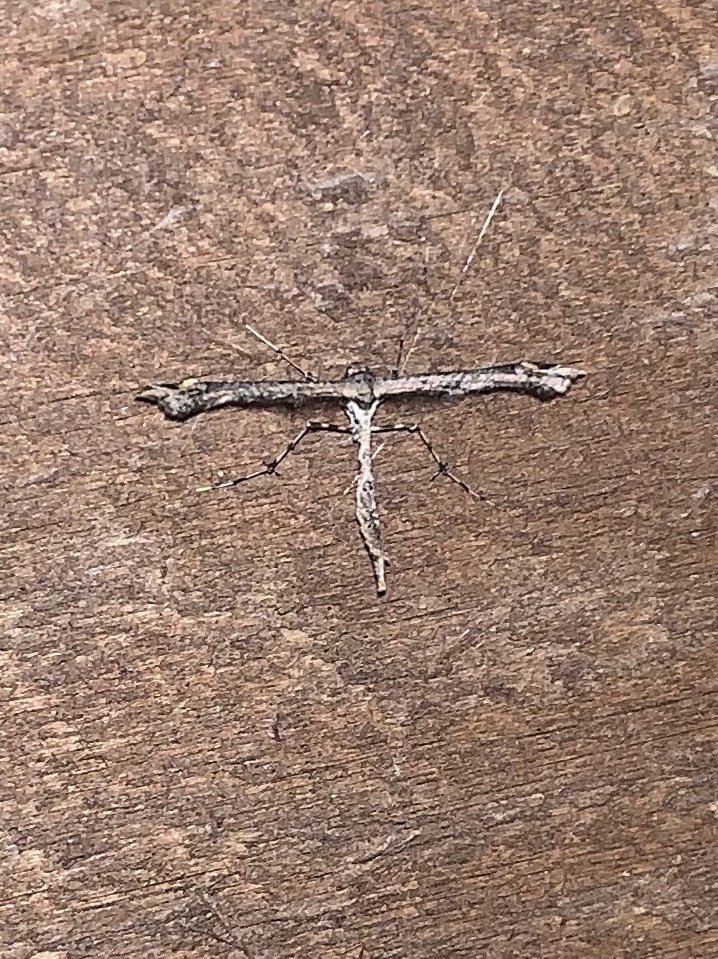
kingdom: Animalia
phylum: Arthropoda
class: Insecta
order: Lepidoptera
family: Pterophoridae
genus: Anstenoptilia
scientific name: Anstenoptilia marmarodactyla
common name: Moth
